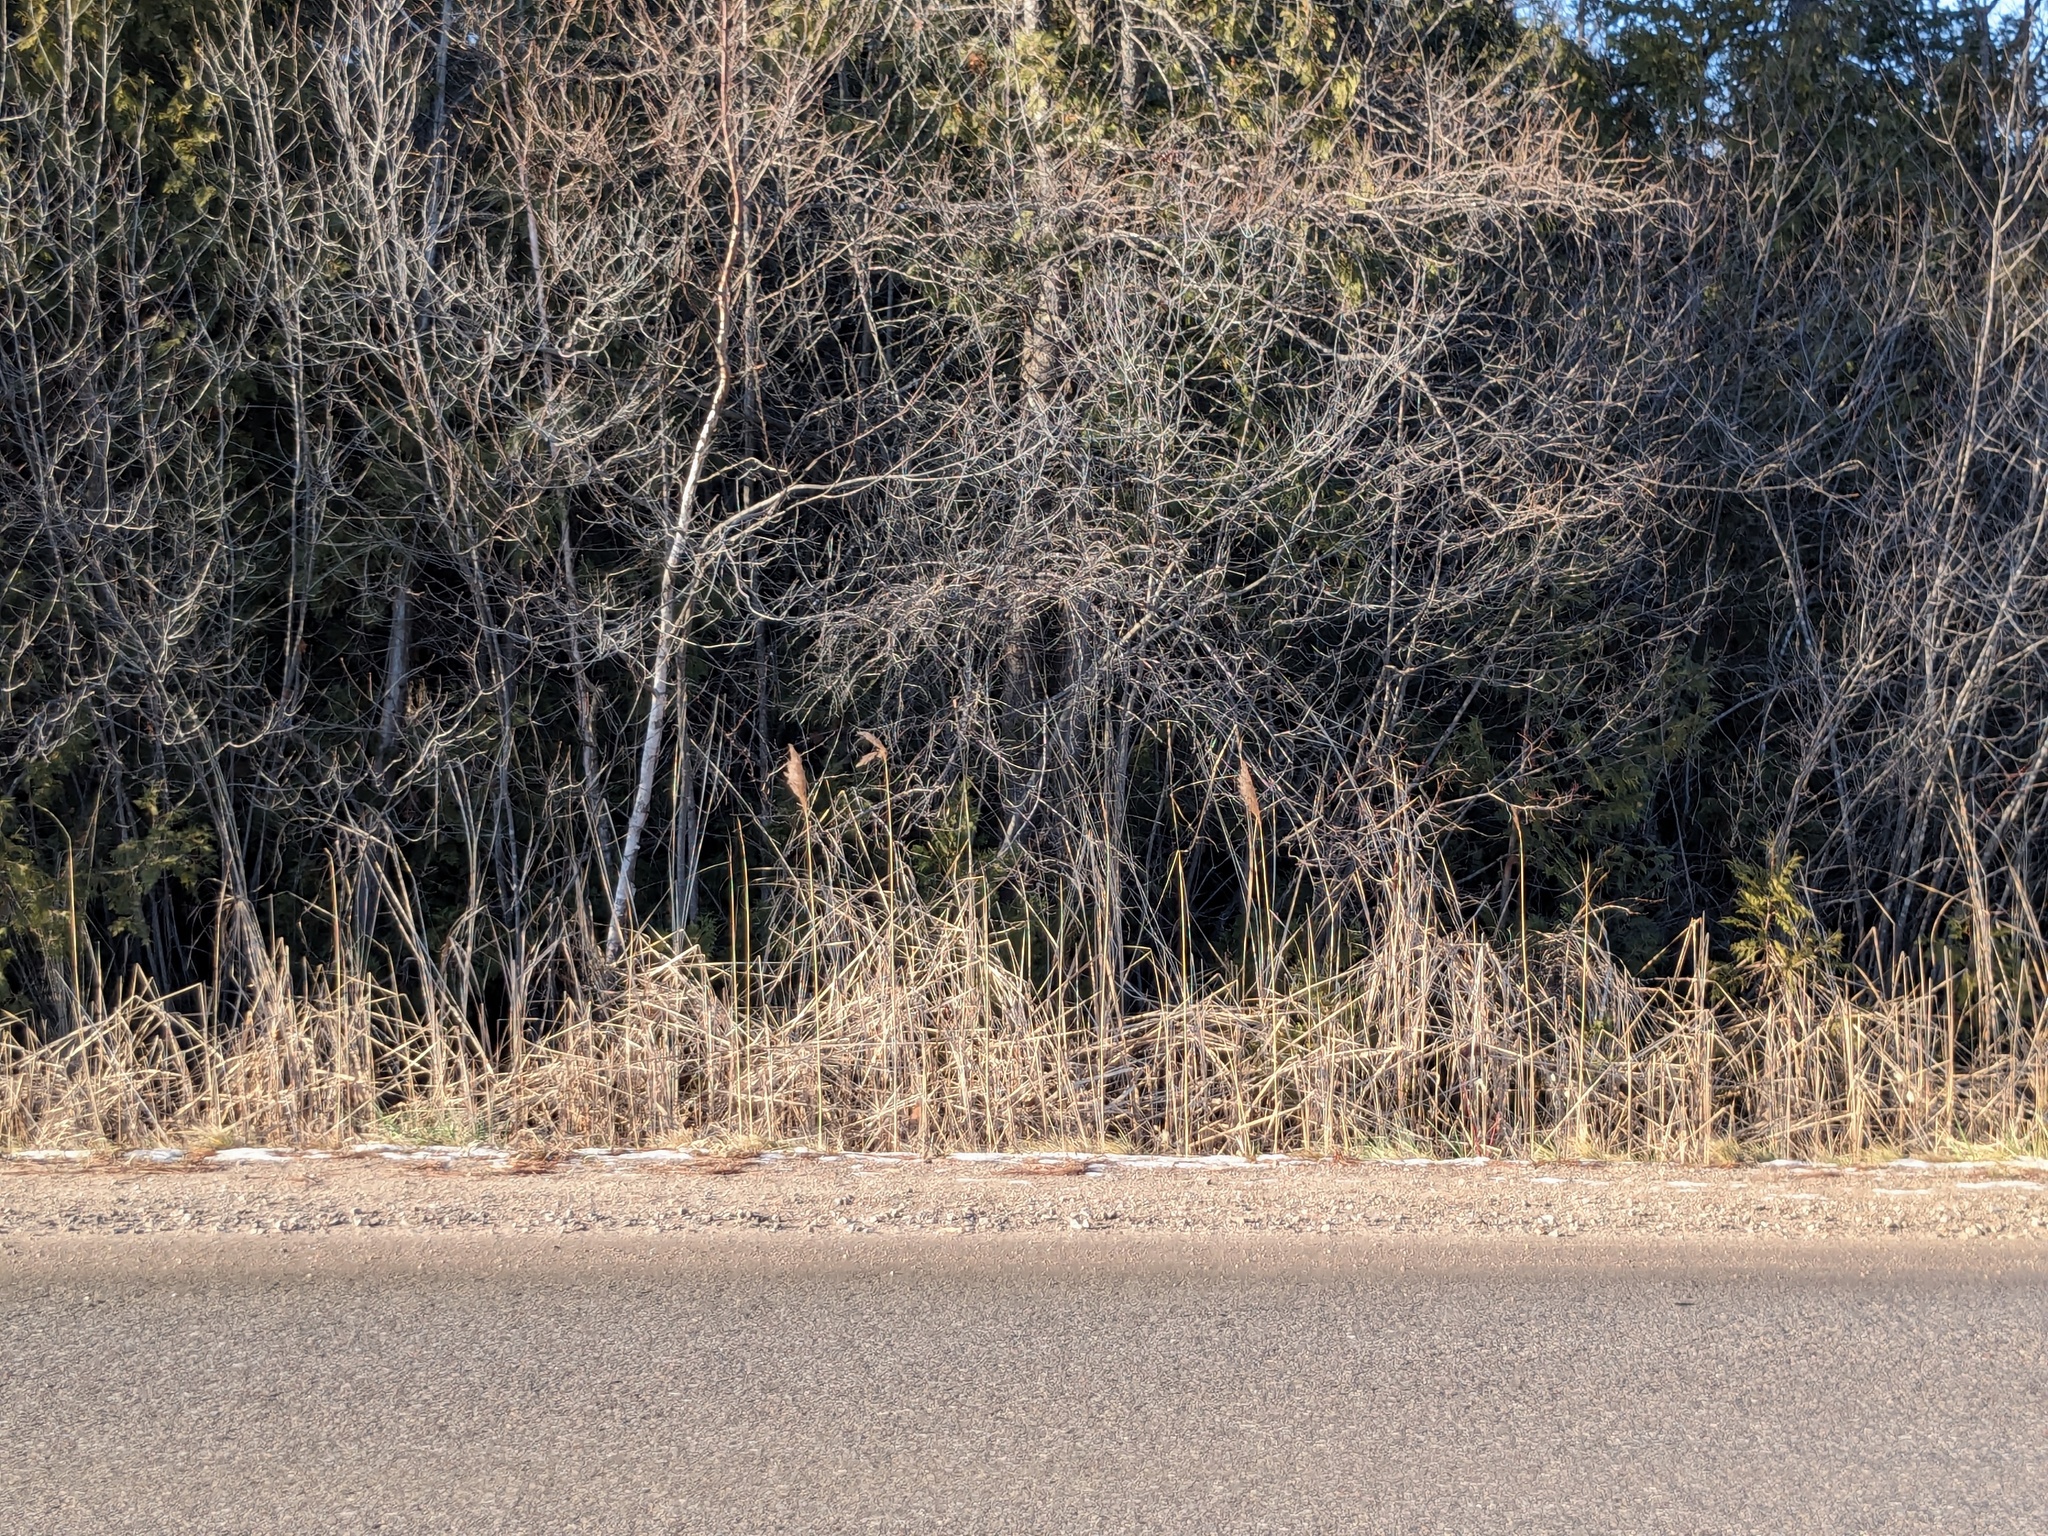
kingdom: Plantae
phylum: Tracheophyta
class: Liliopsida
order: Poales
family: Poaceae
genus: Phragmites
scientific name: Phragmites australis
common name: Common reed
